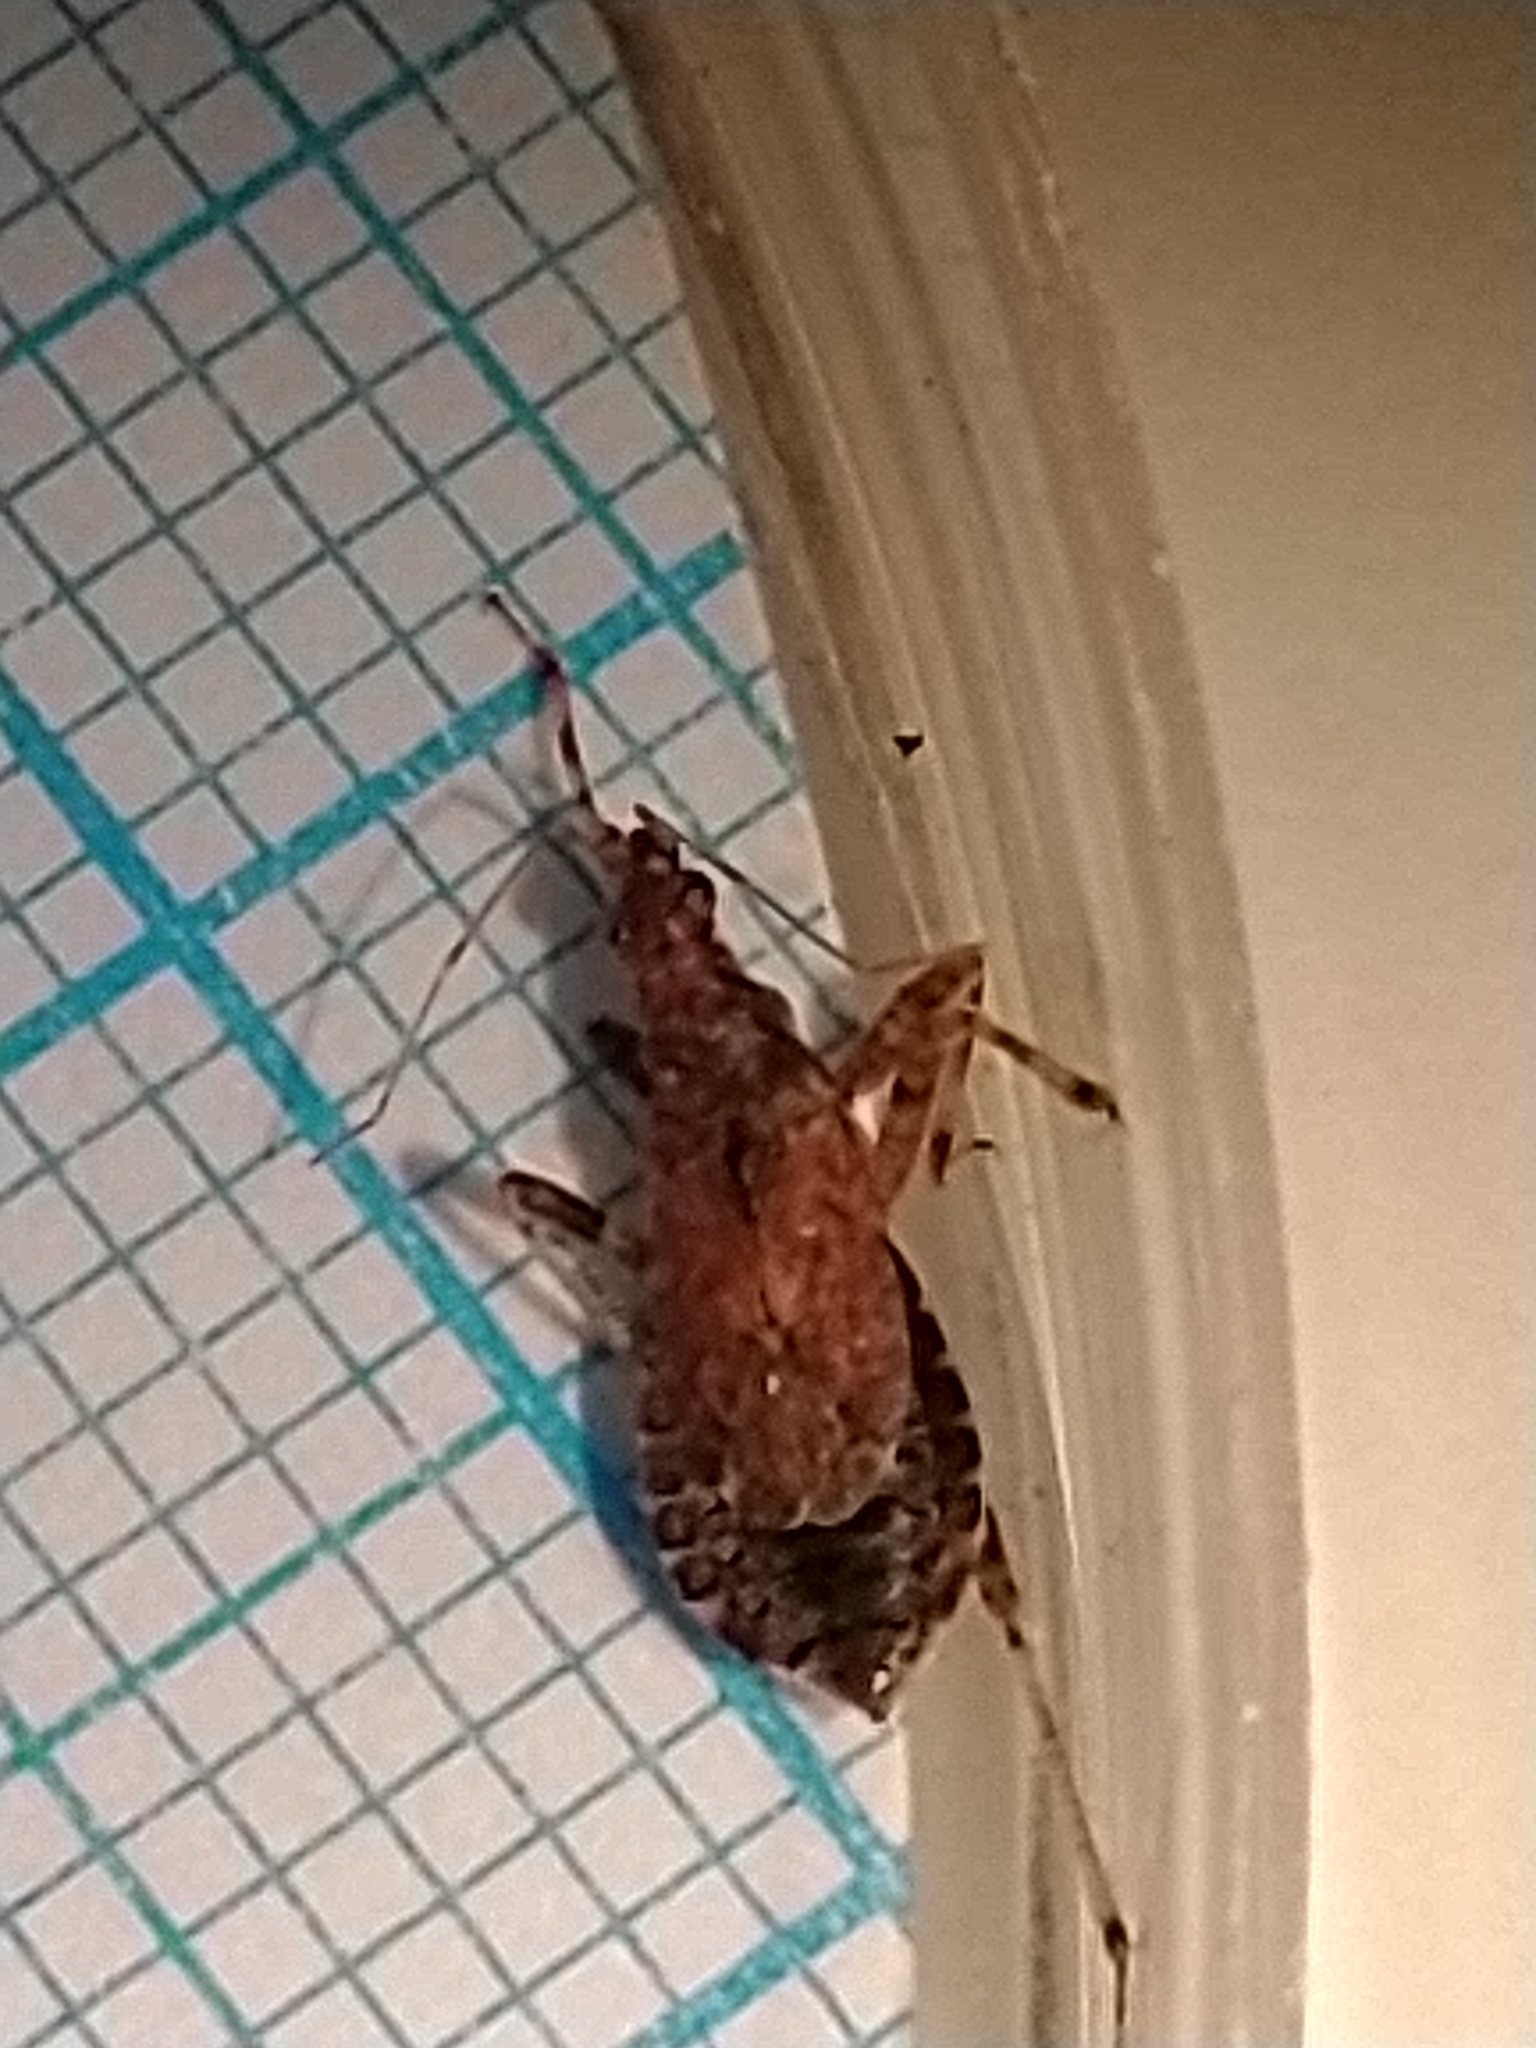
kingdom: Animalia
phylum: Arthropoda
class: Insecta
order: Hemiptera
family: Nabidae
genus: Himacerus
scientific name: Himacerus mirmicoides
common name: Ant damsel bug
